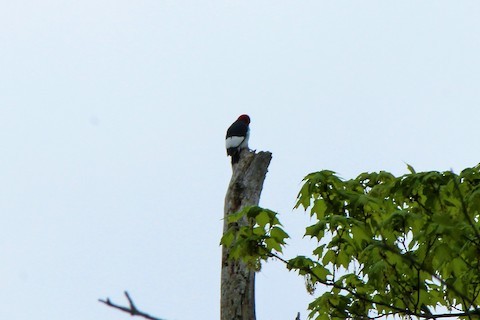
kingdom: Animalia
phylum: Chordata
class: Aves
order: Piciformes
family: Picidae
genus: Melanerpes
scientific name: Melanerpes erythrocephalus
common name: Red-headed woodpecker
